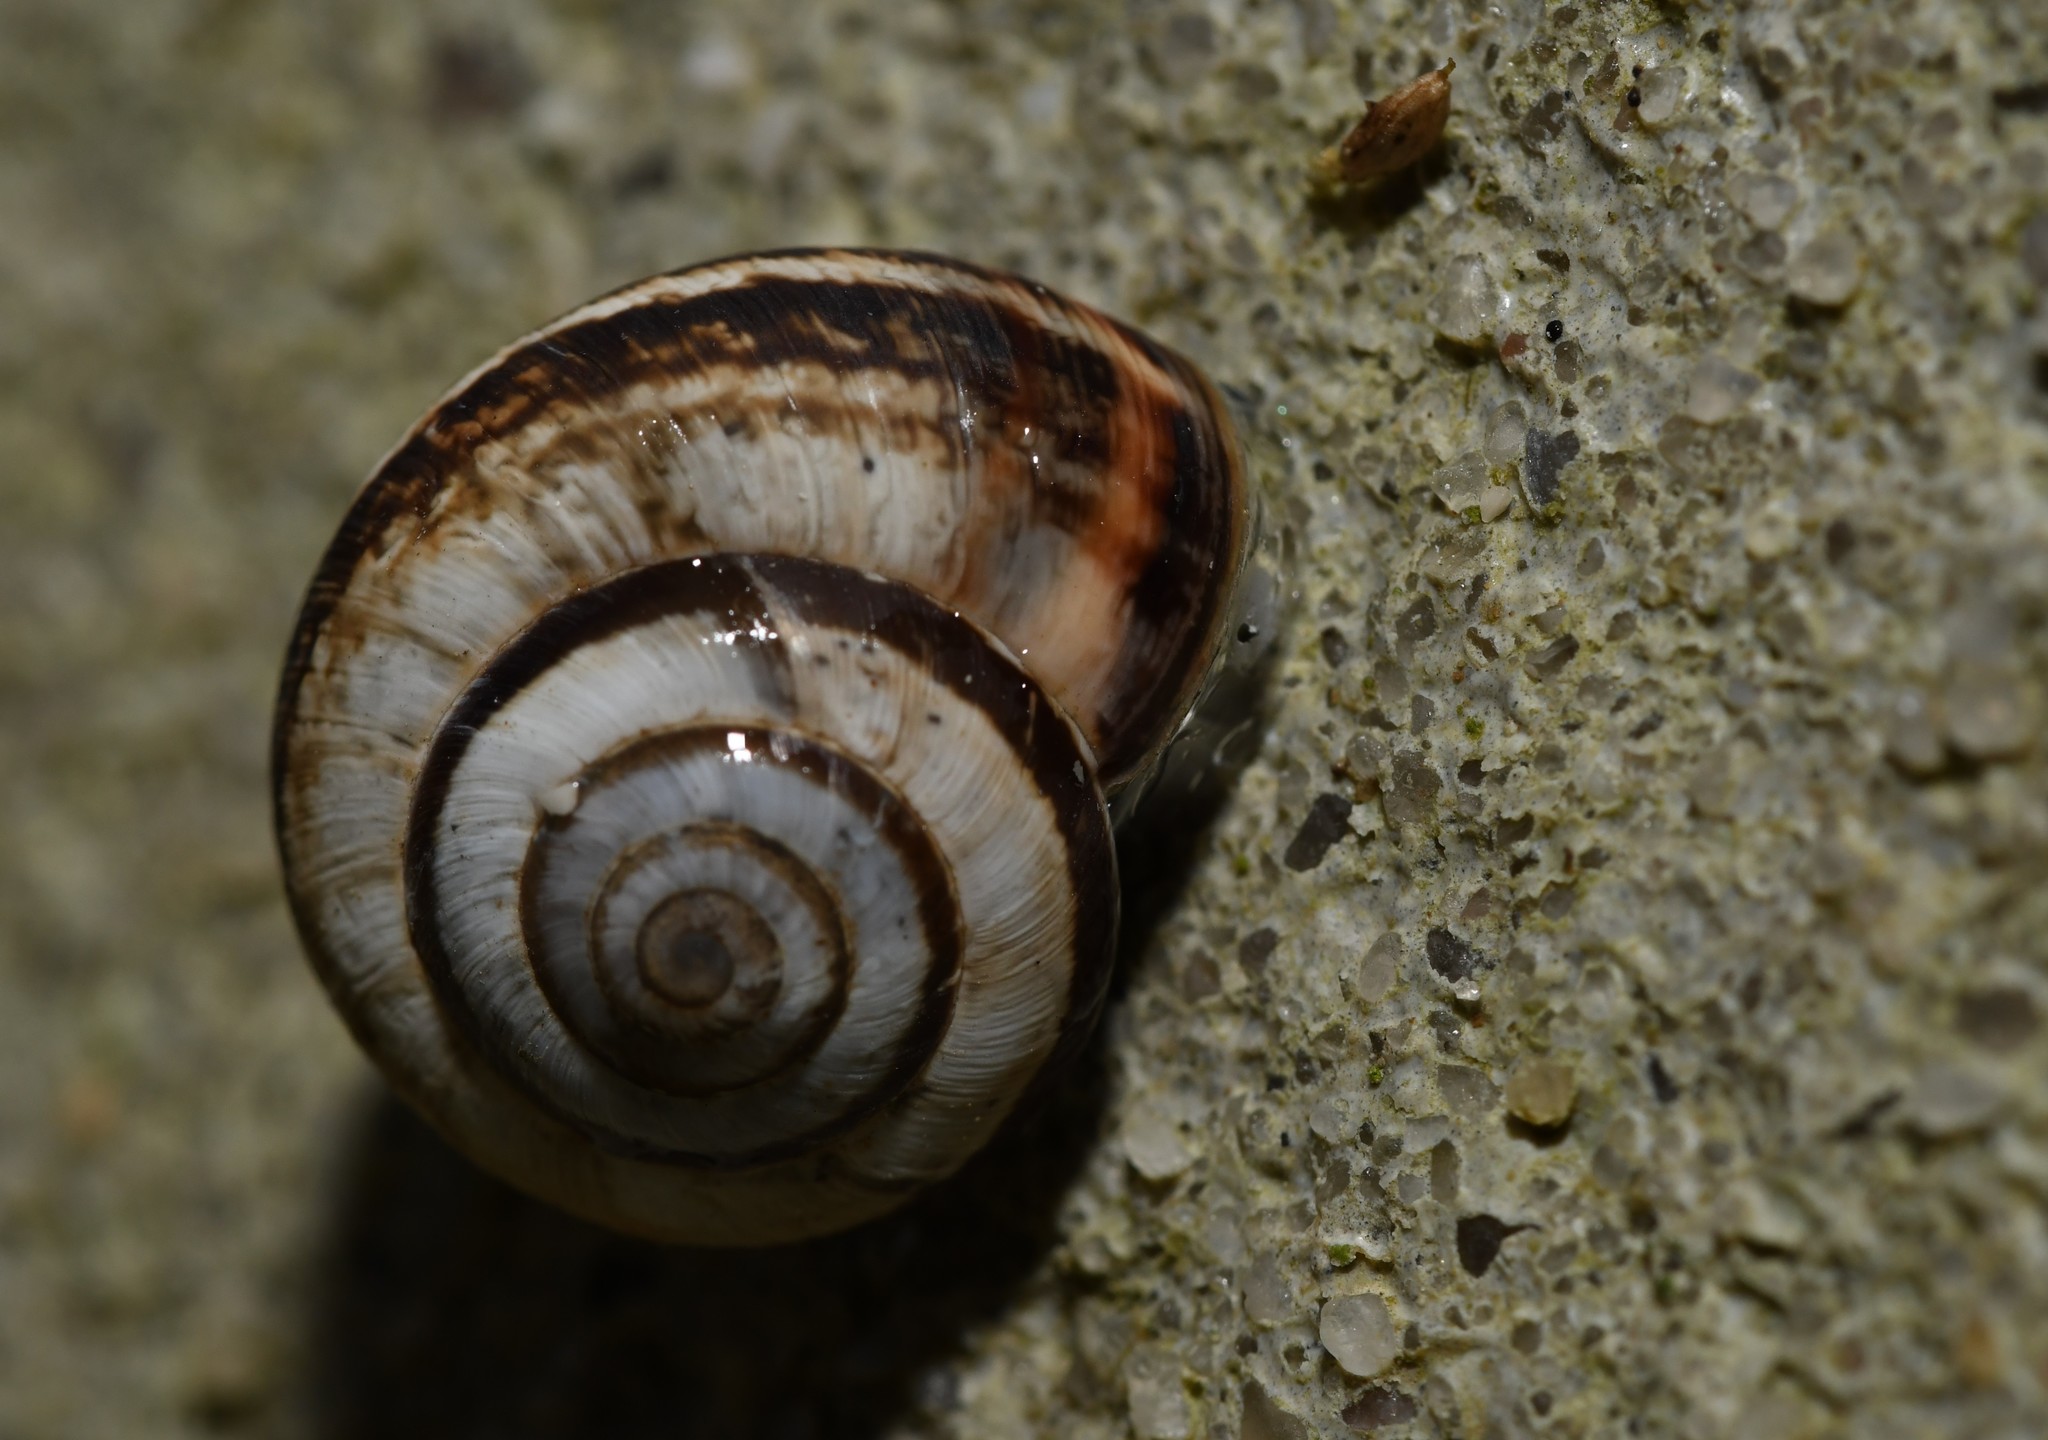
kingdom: Animalia
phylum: Mollusca
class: Gastropoda
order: Stylommatophora
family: Geomitridae
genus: Cernuella
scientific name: Cernuella virgata
